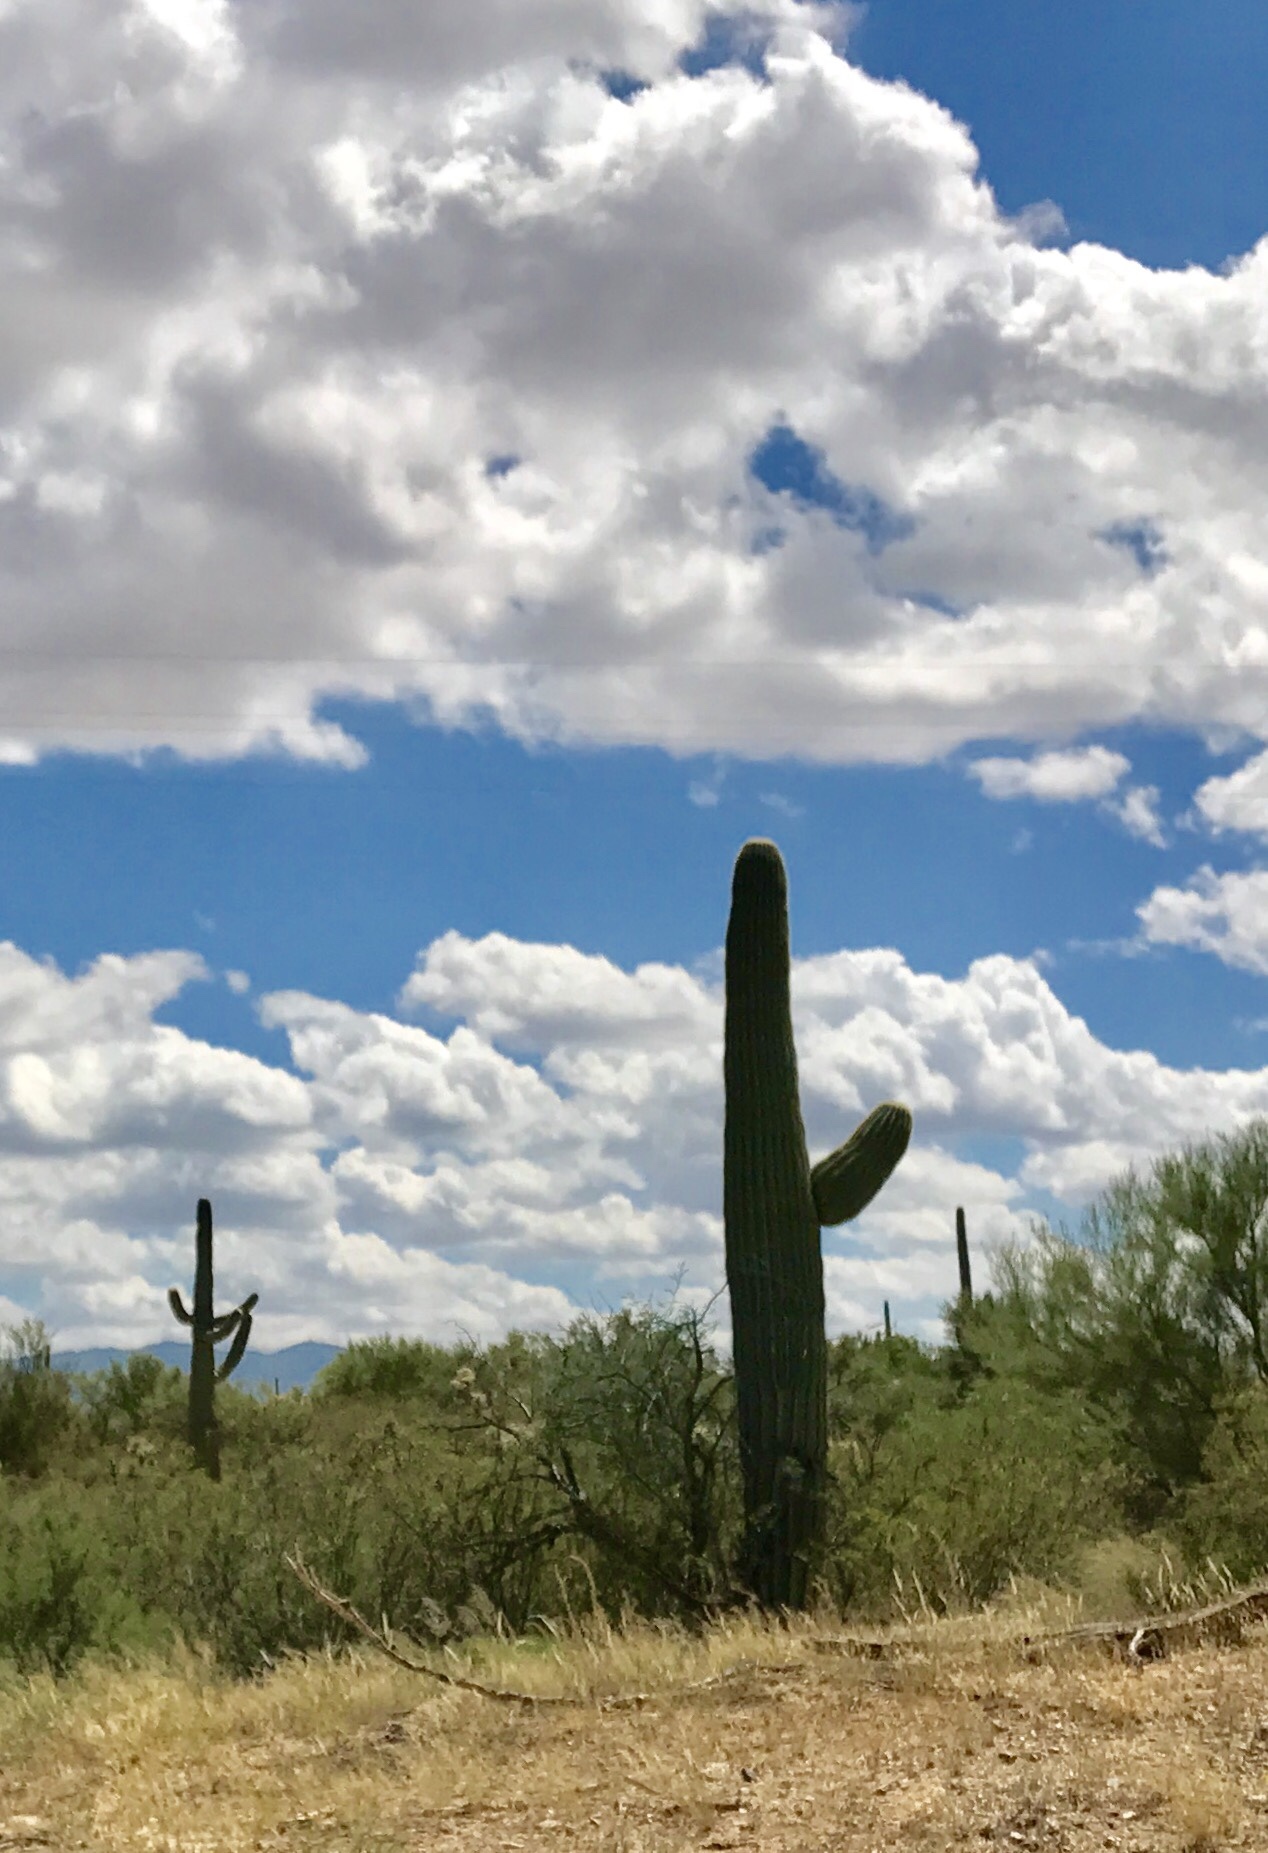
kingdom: Plantae
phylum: Tracheophyta
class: Magnoliopsida
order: Caryophyllales
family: Cactaceae
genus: Carnegiea
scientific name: Carnegiea gigantea
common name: Saguaro
